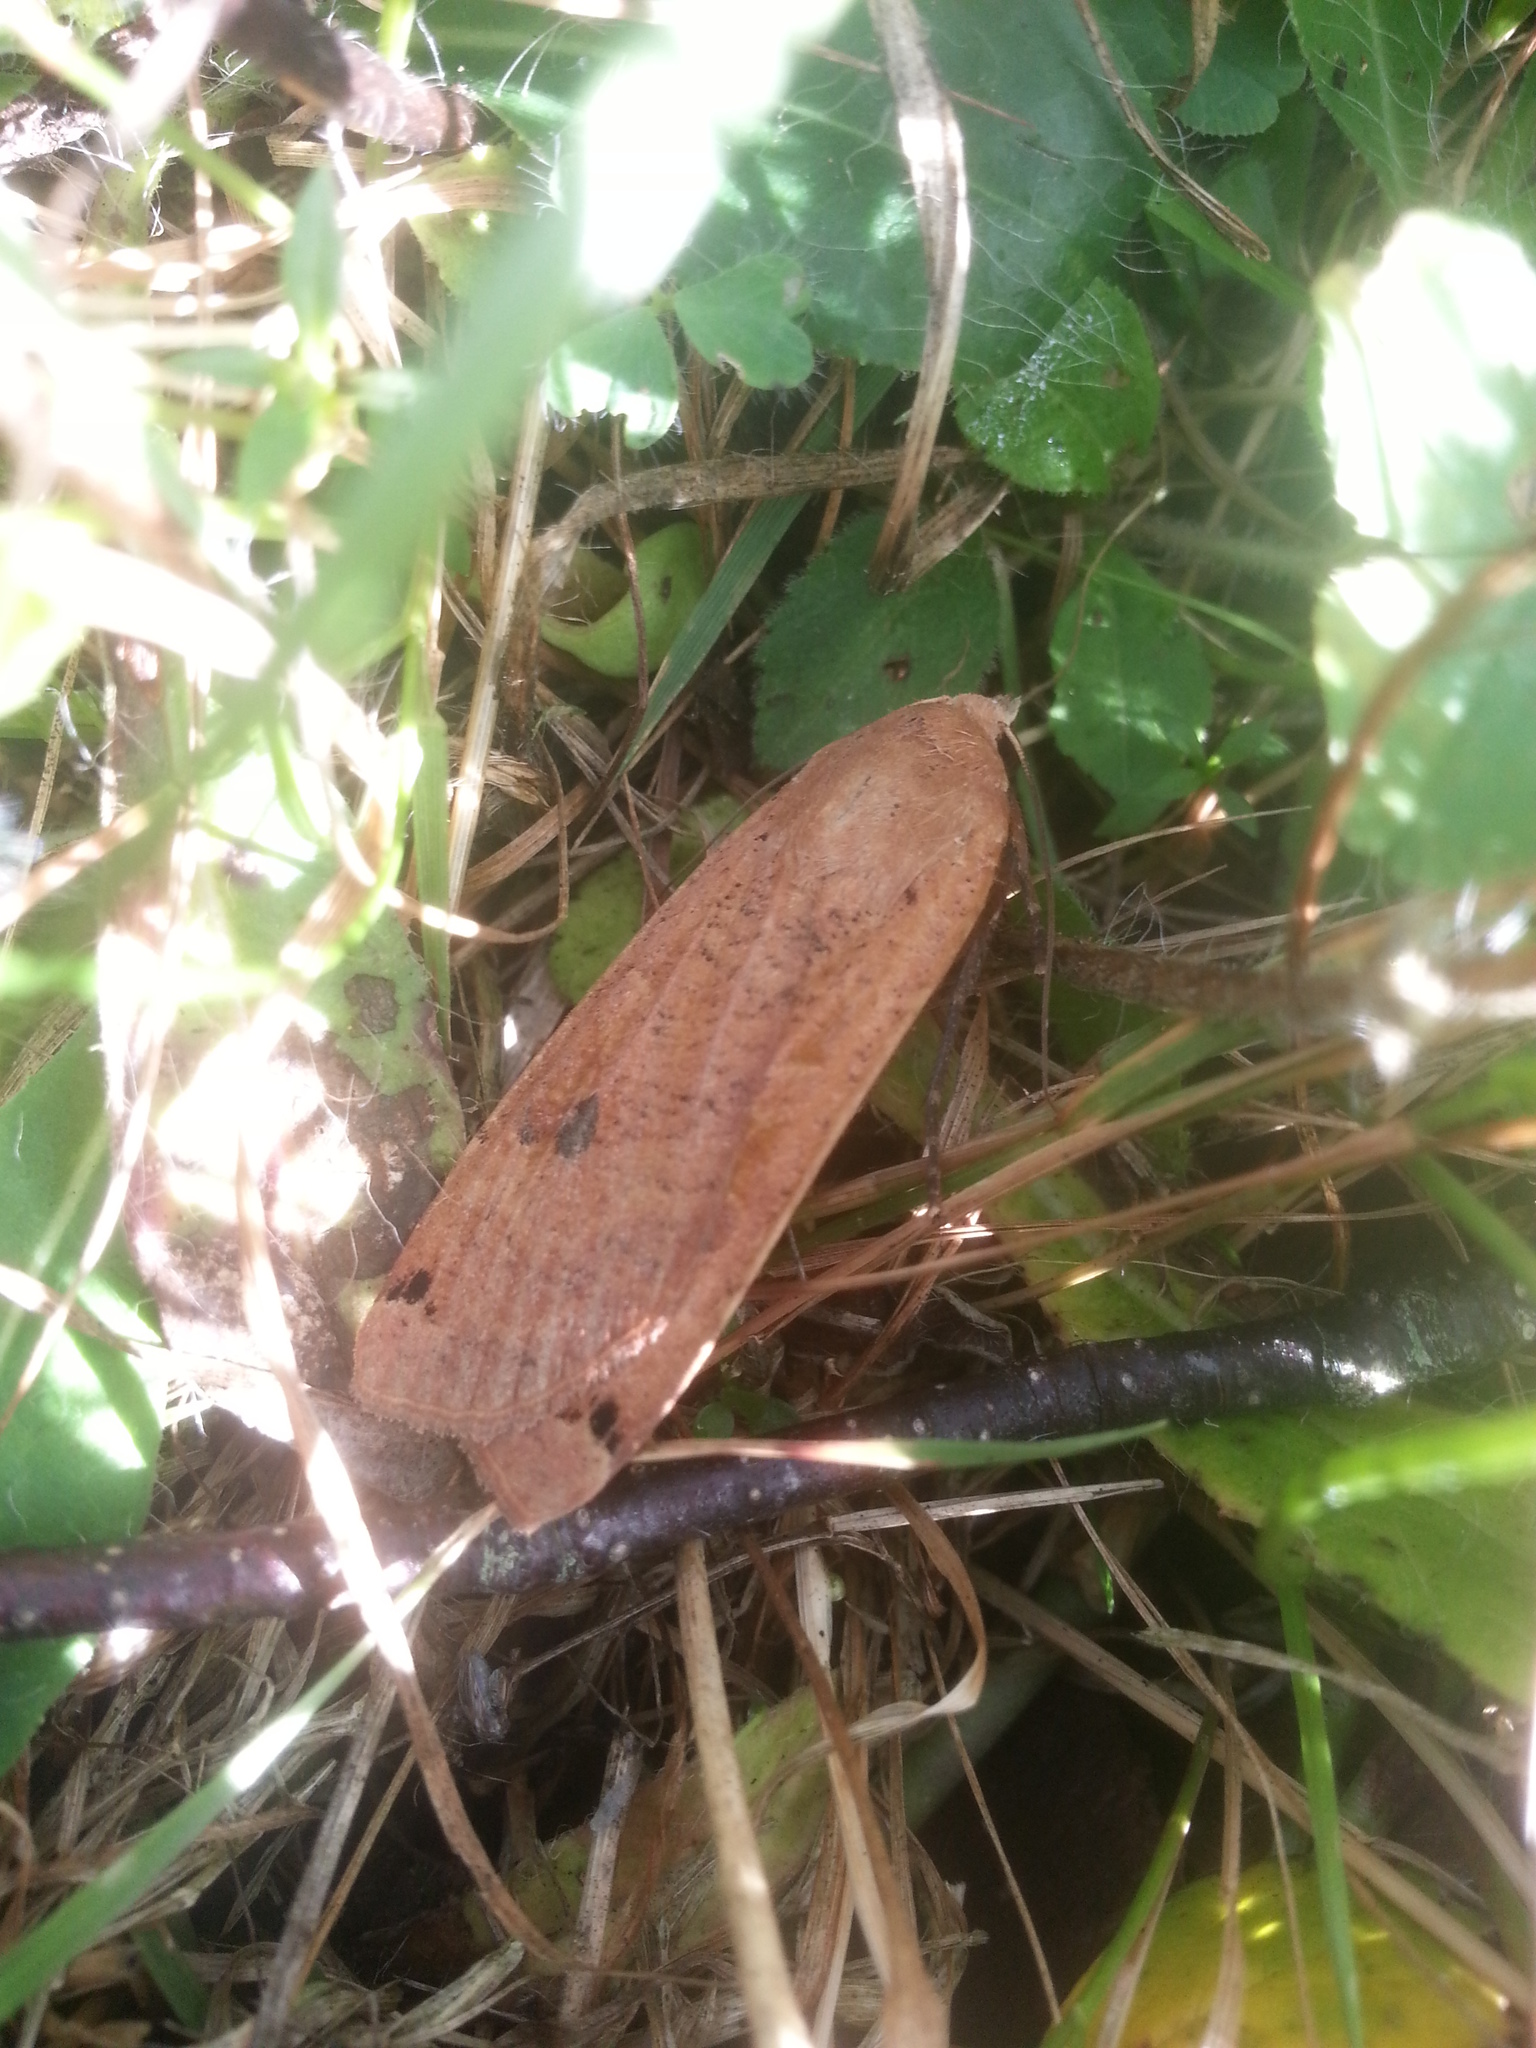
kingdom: Animalia
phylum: Arthropoda
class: Insecta
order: Lepidoptera
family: Noctuidae
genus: Noctua
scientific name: Noctua pronuba
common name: Large yellow underwing
